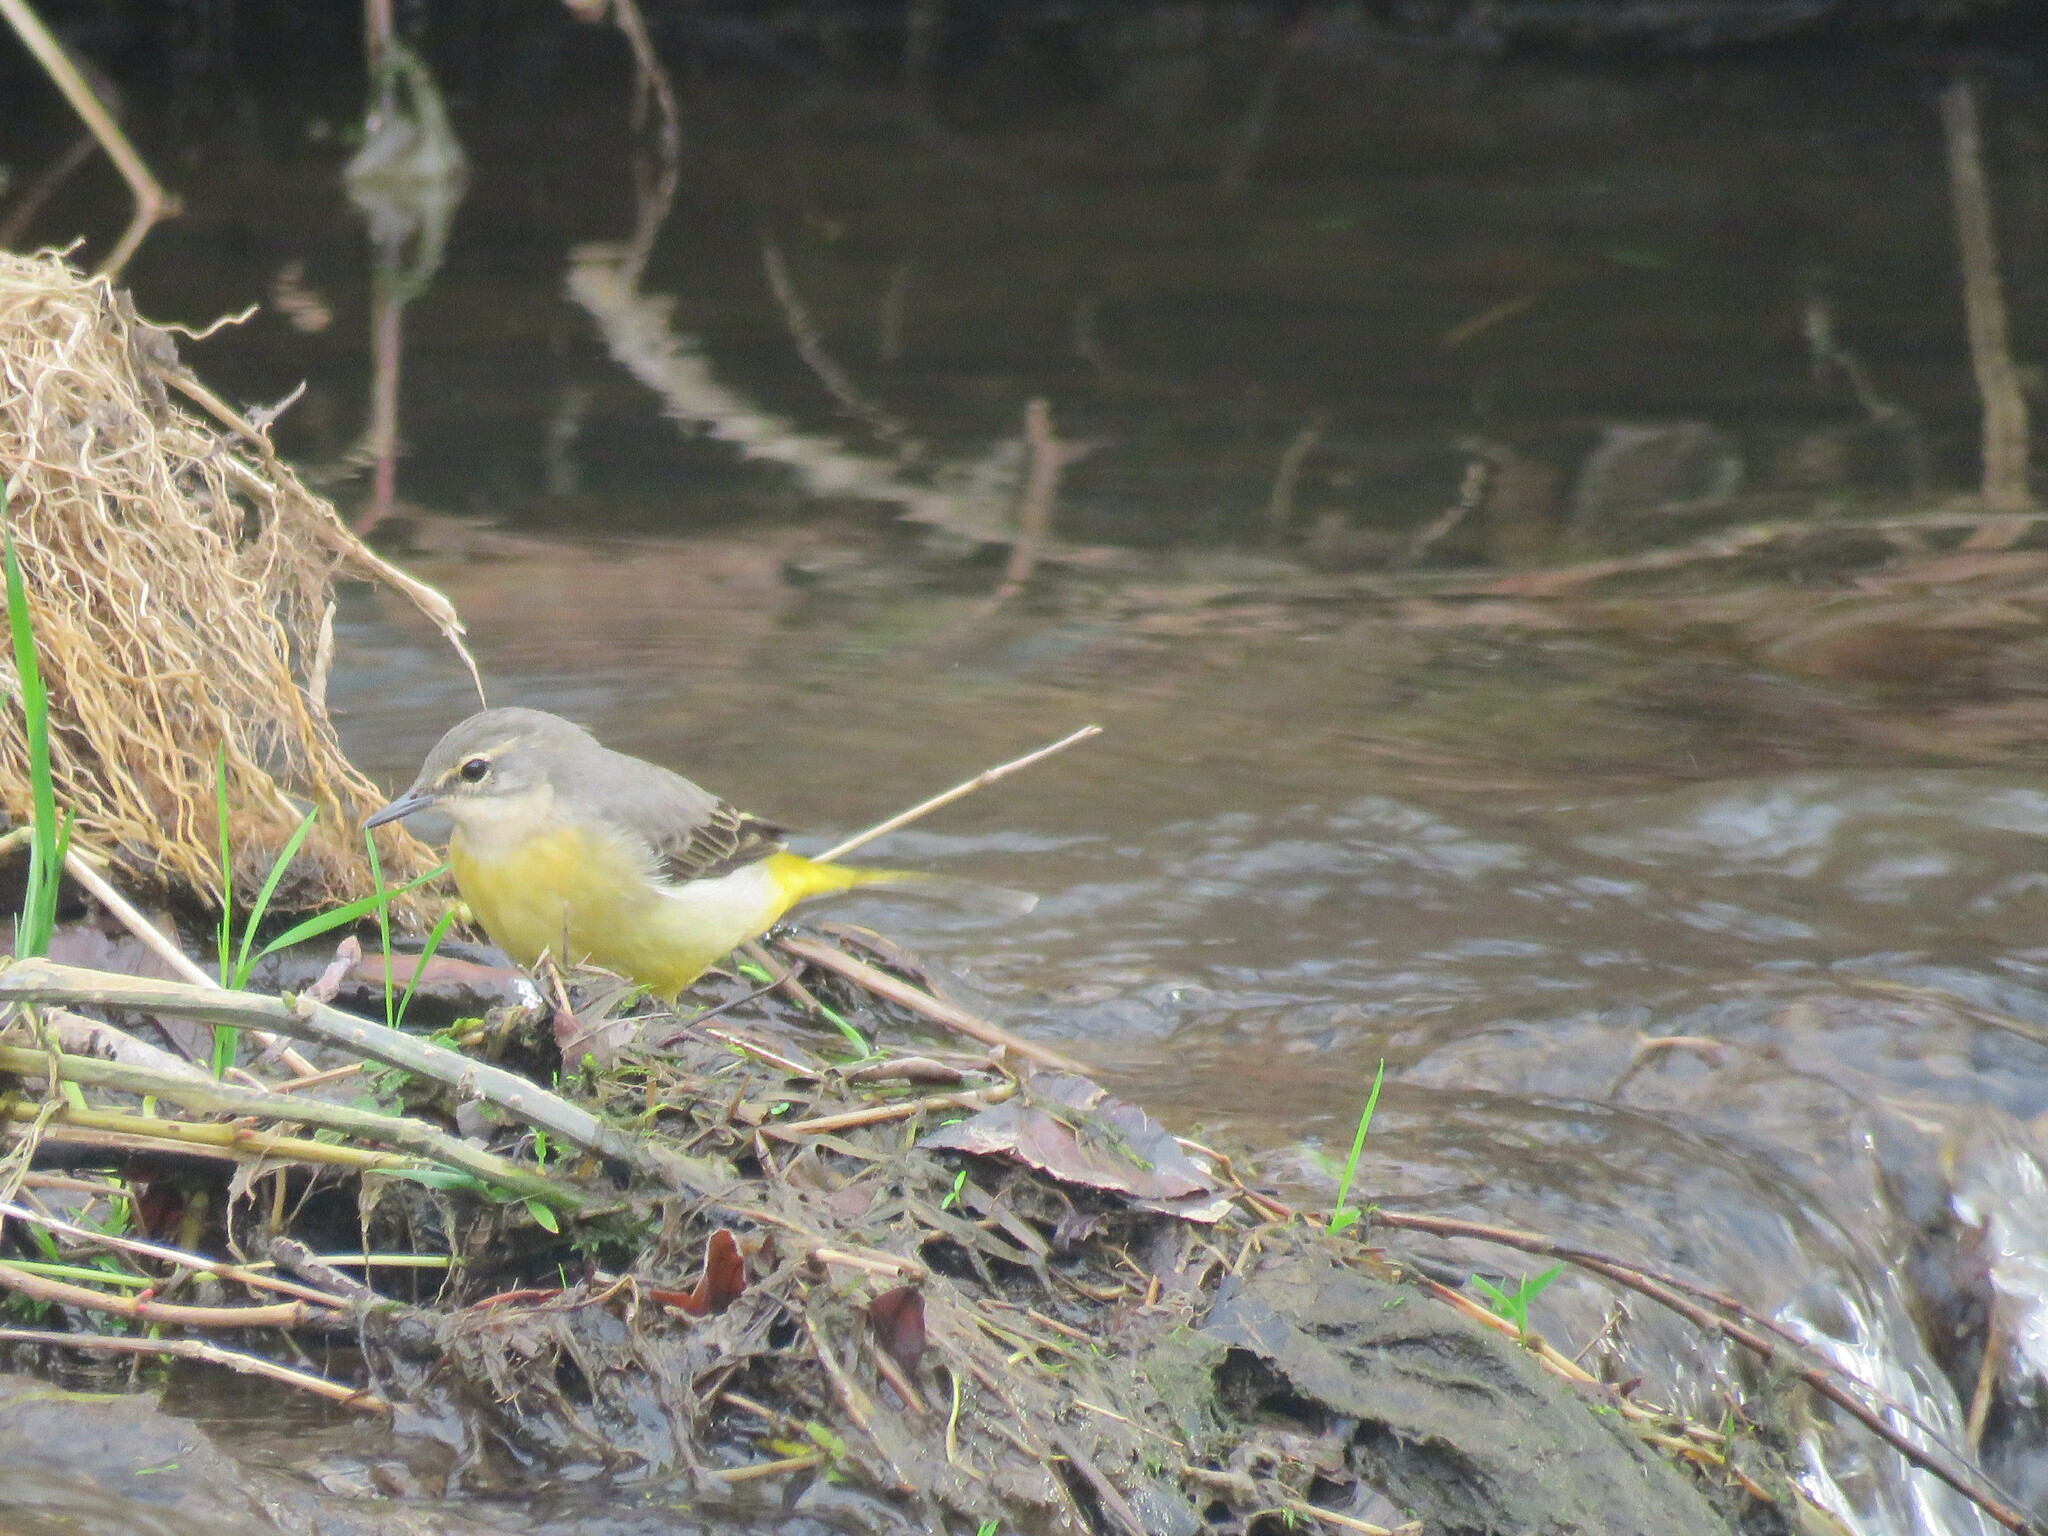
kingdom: Animalia
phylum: Chordata
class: Aves
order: Passeriformes
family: Motacillidae
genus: Motacilla
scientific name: Motacilla cinerea
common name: Grey wagtail
